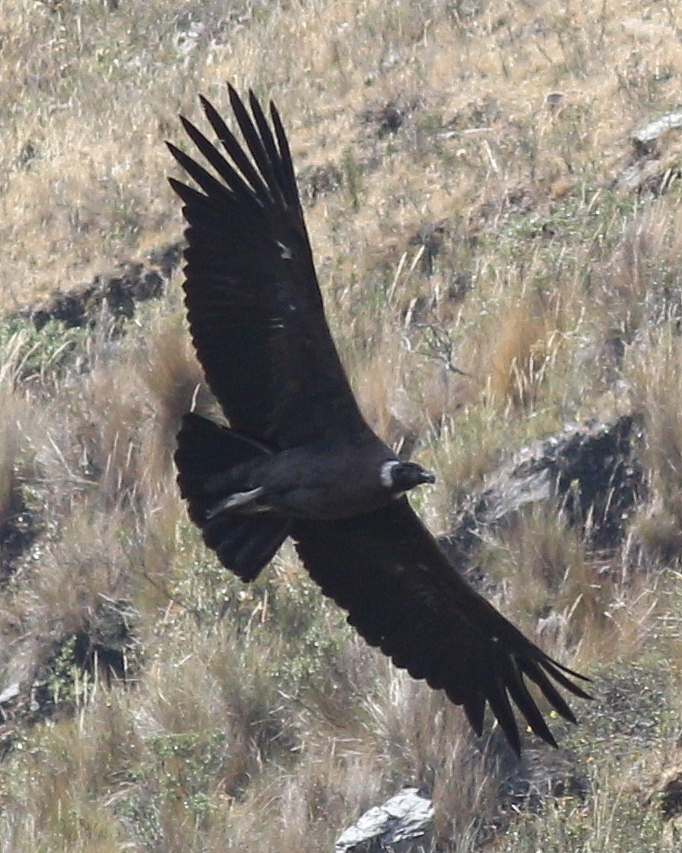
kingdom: Animalia
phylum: Chordata
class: Aves
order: Accipitriformes
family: Cathartidae
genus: Vultur
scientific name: Vultur gryphus
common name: Andean condor
